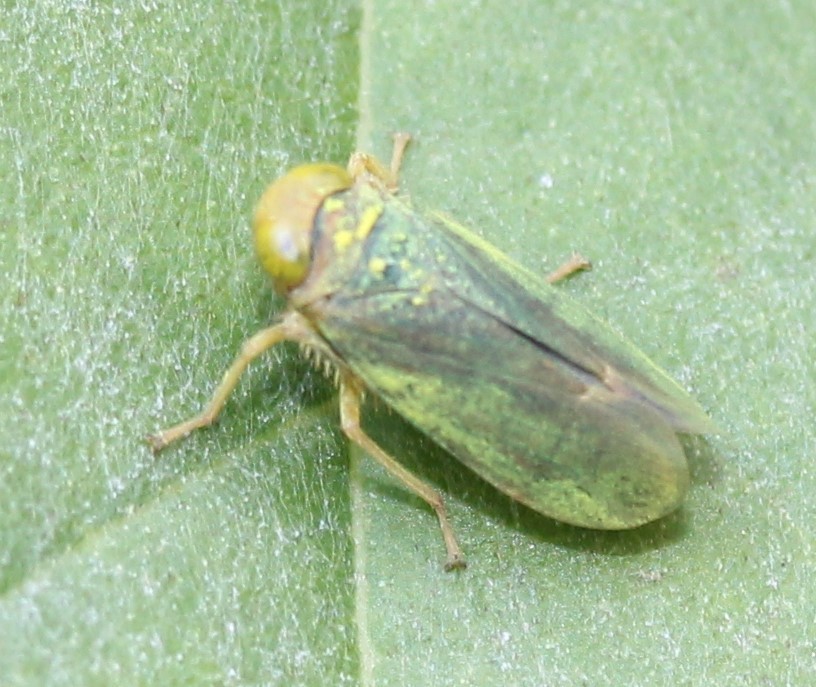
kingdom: Animalia
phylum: Arthropoda
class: Insecta
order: Hemiptera
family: Cicadellidae
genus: Jikradia
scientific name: Jikradia olitoria
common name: Coppery leafhopper
